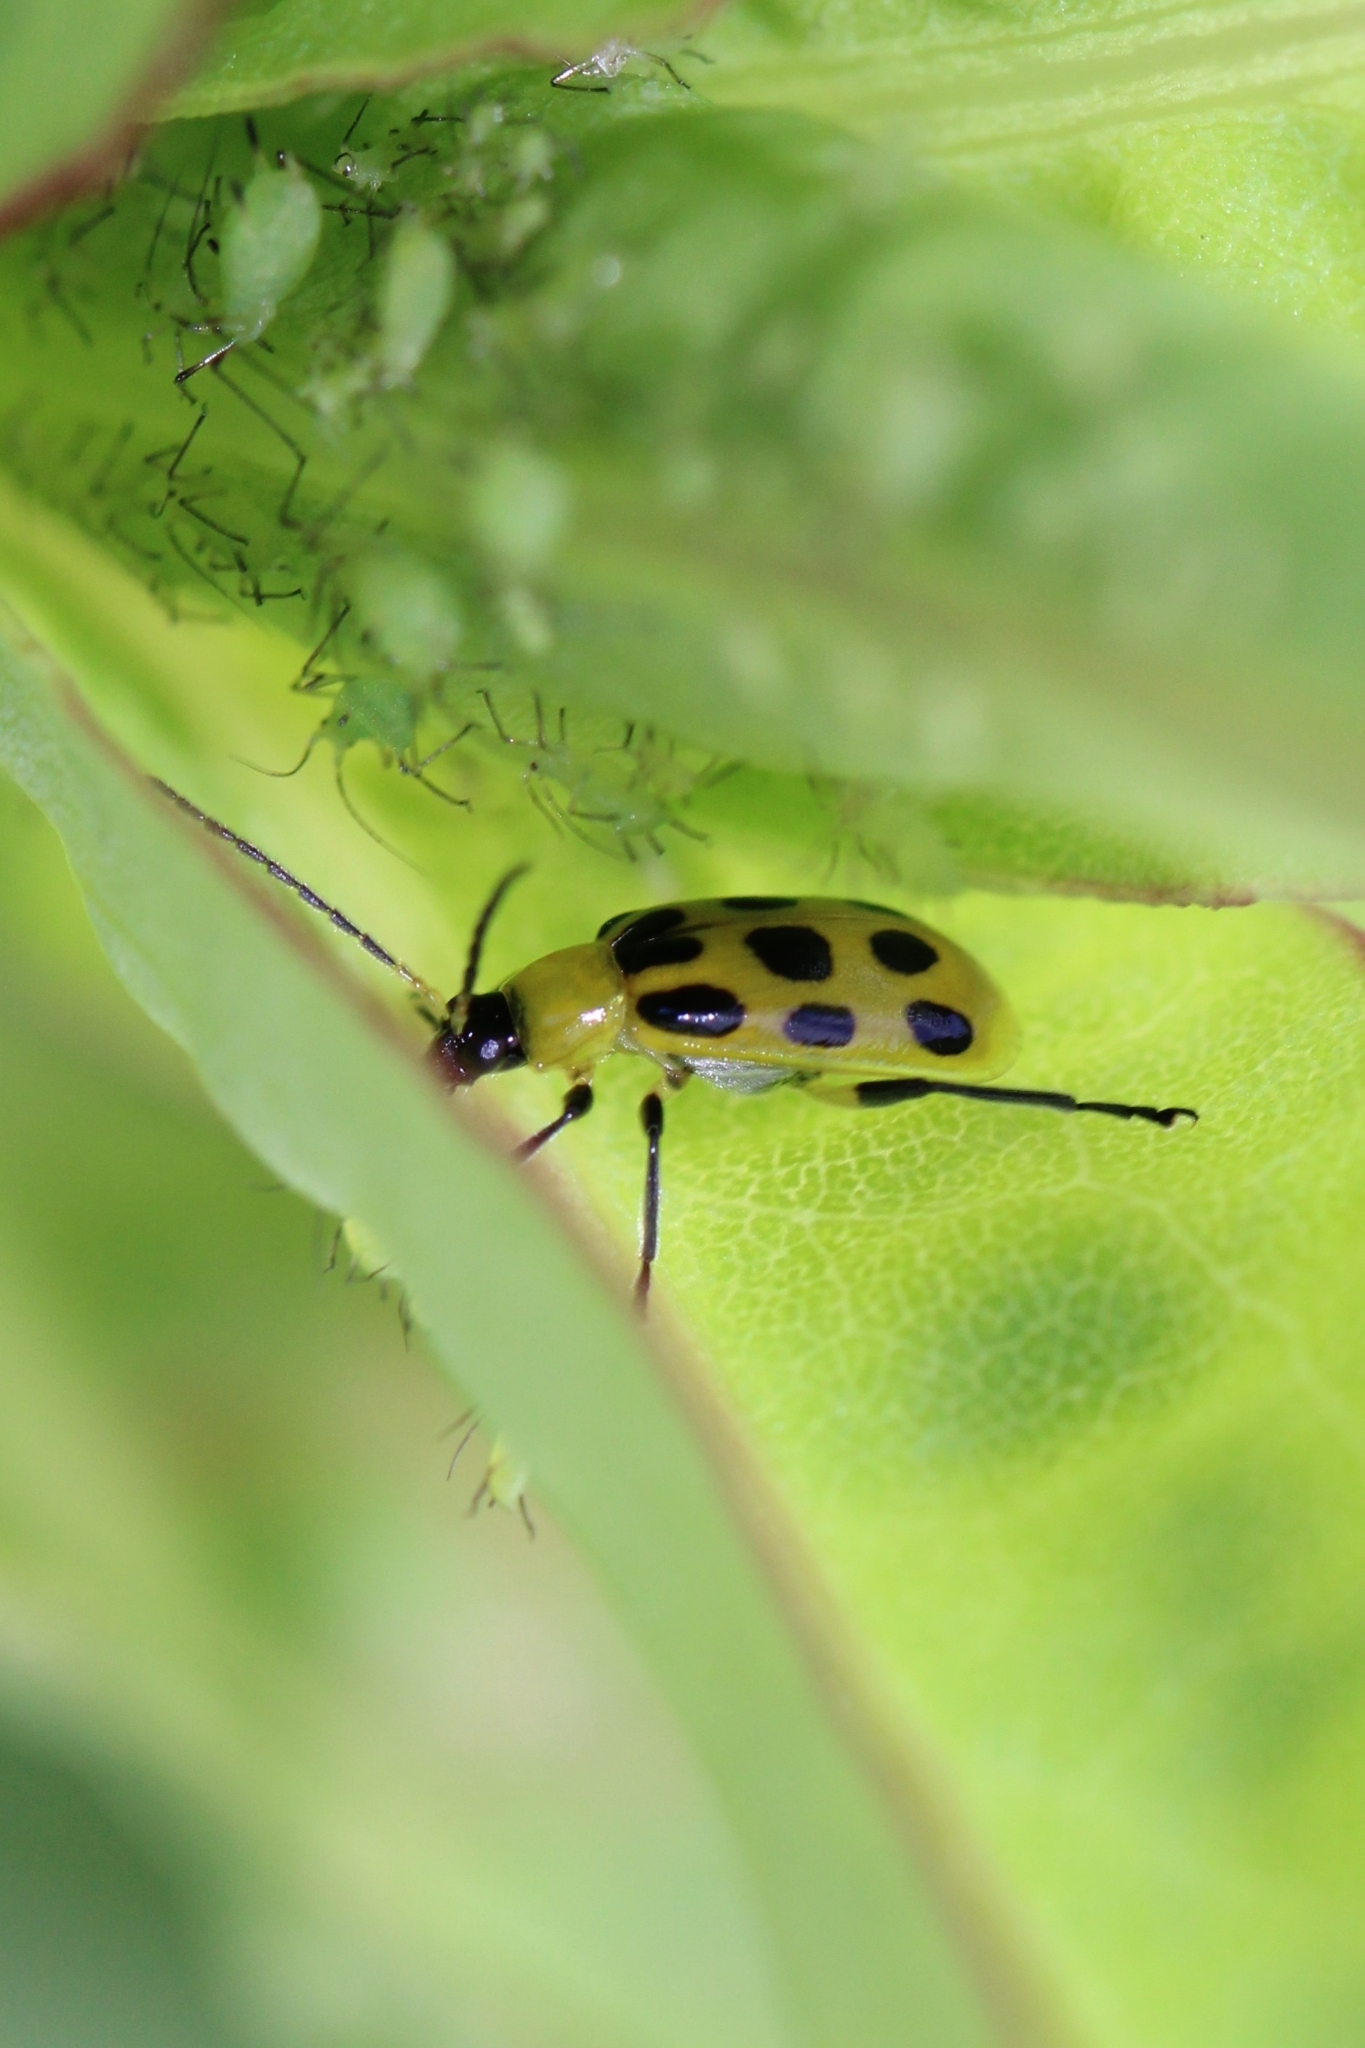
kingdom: Animalia
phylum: Arthropoda
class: Insecta
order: Coleoptera
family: Chrysomelidae
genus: Diabrotica
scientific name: Diabrotica undecimpunctata
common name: Spotted cucumber beetle
